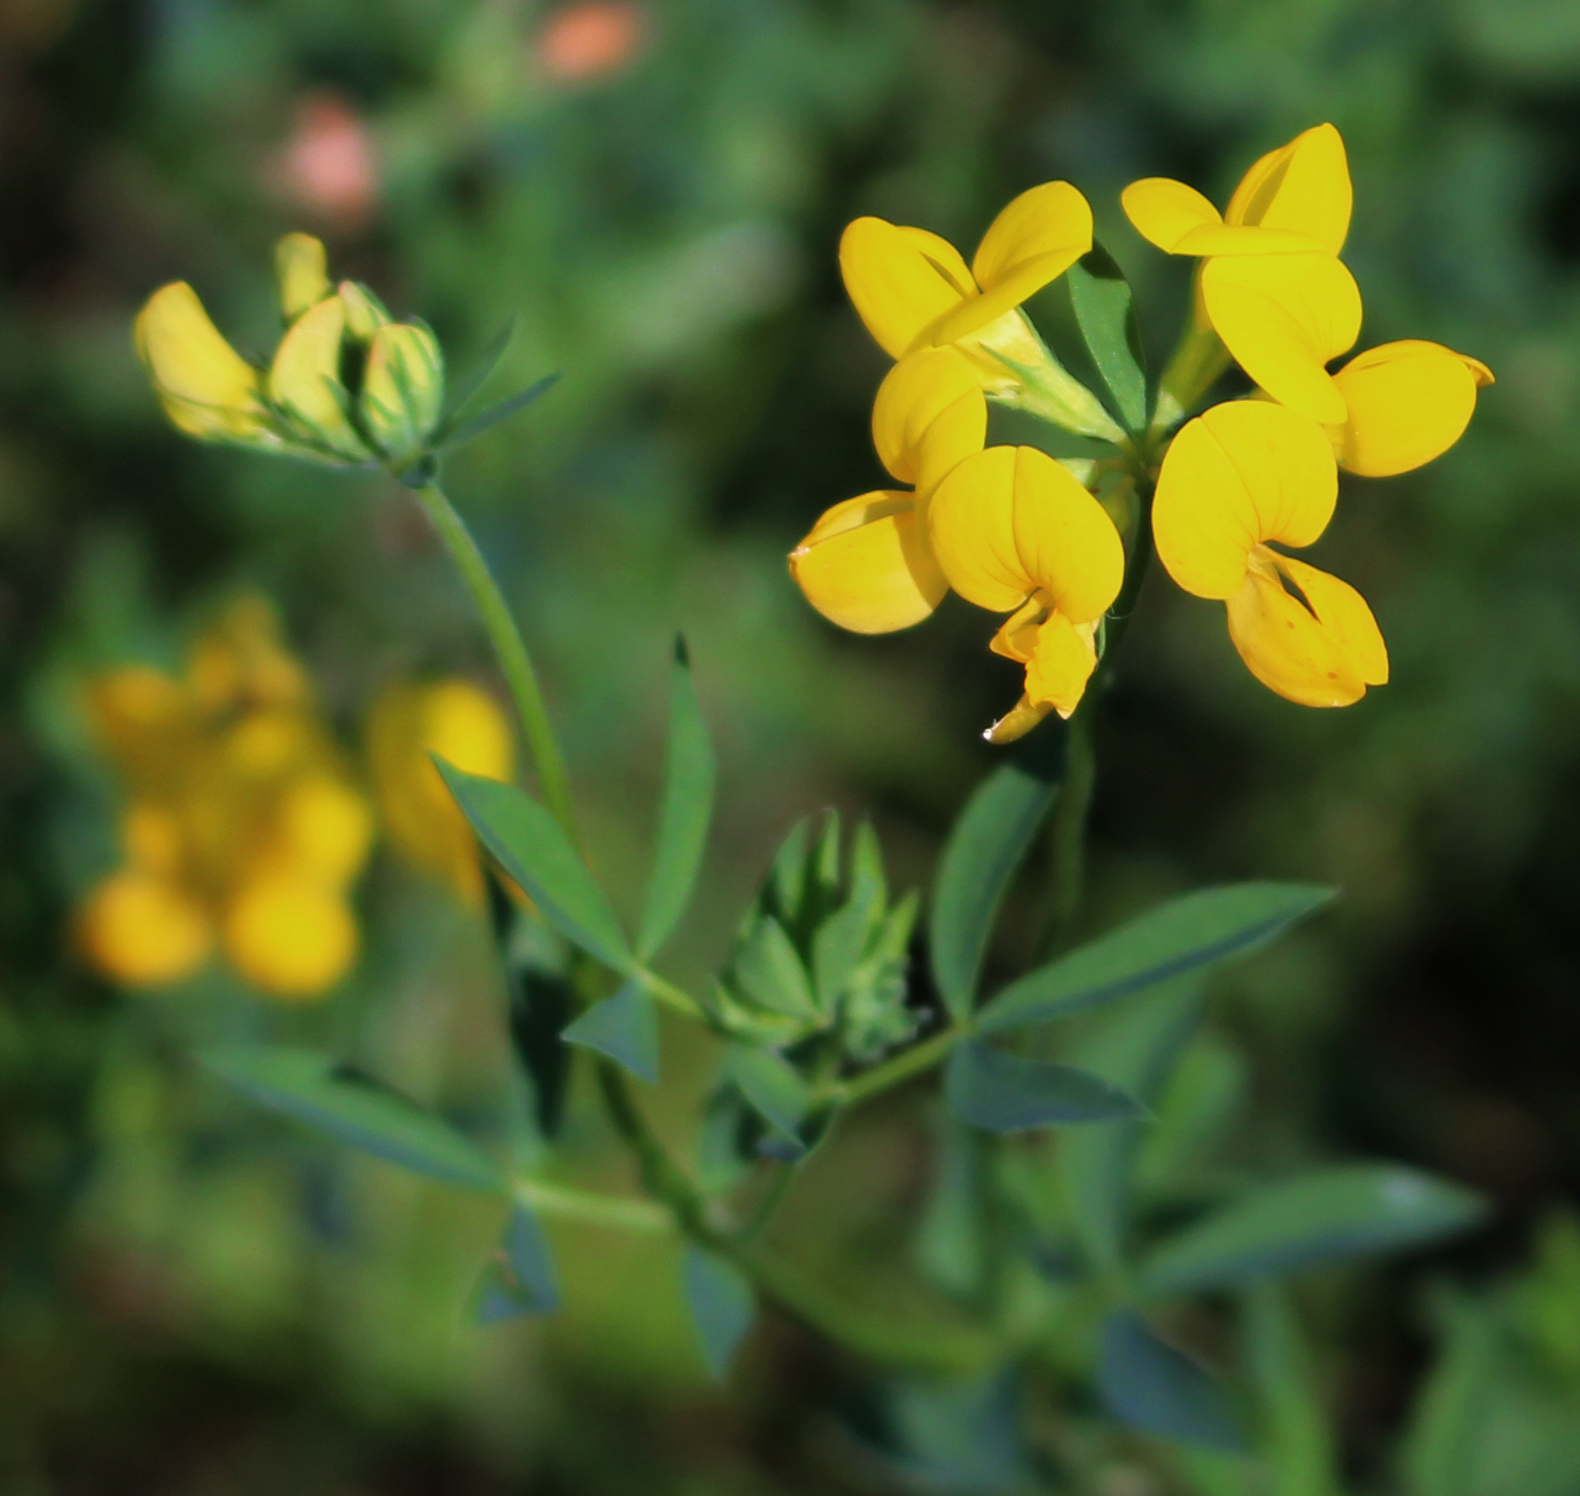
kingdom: Plantae
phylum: Tracheophyta
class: Magnoliopsida
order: Fabales
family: Fabaceae
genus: Lotus
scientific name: Lotus corniculatus
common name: Common bird's-foot-trefoil
